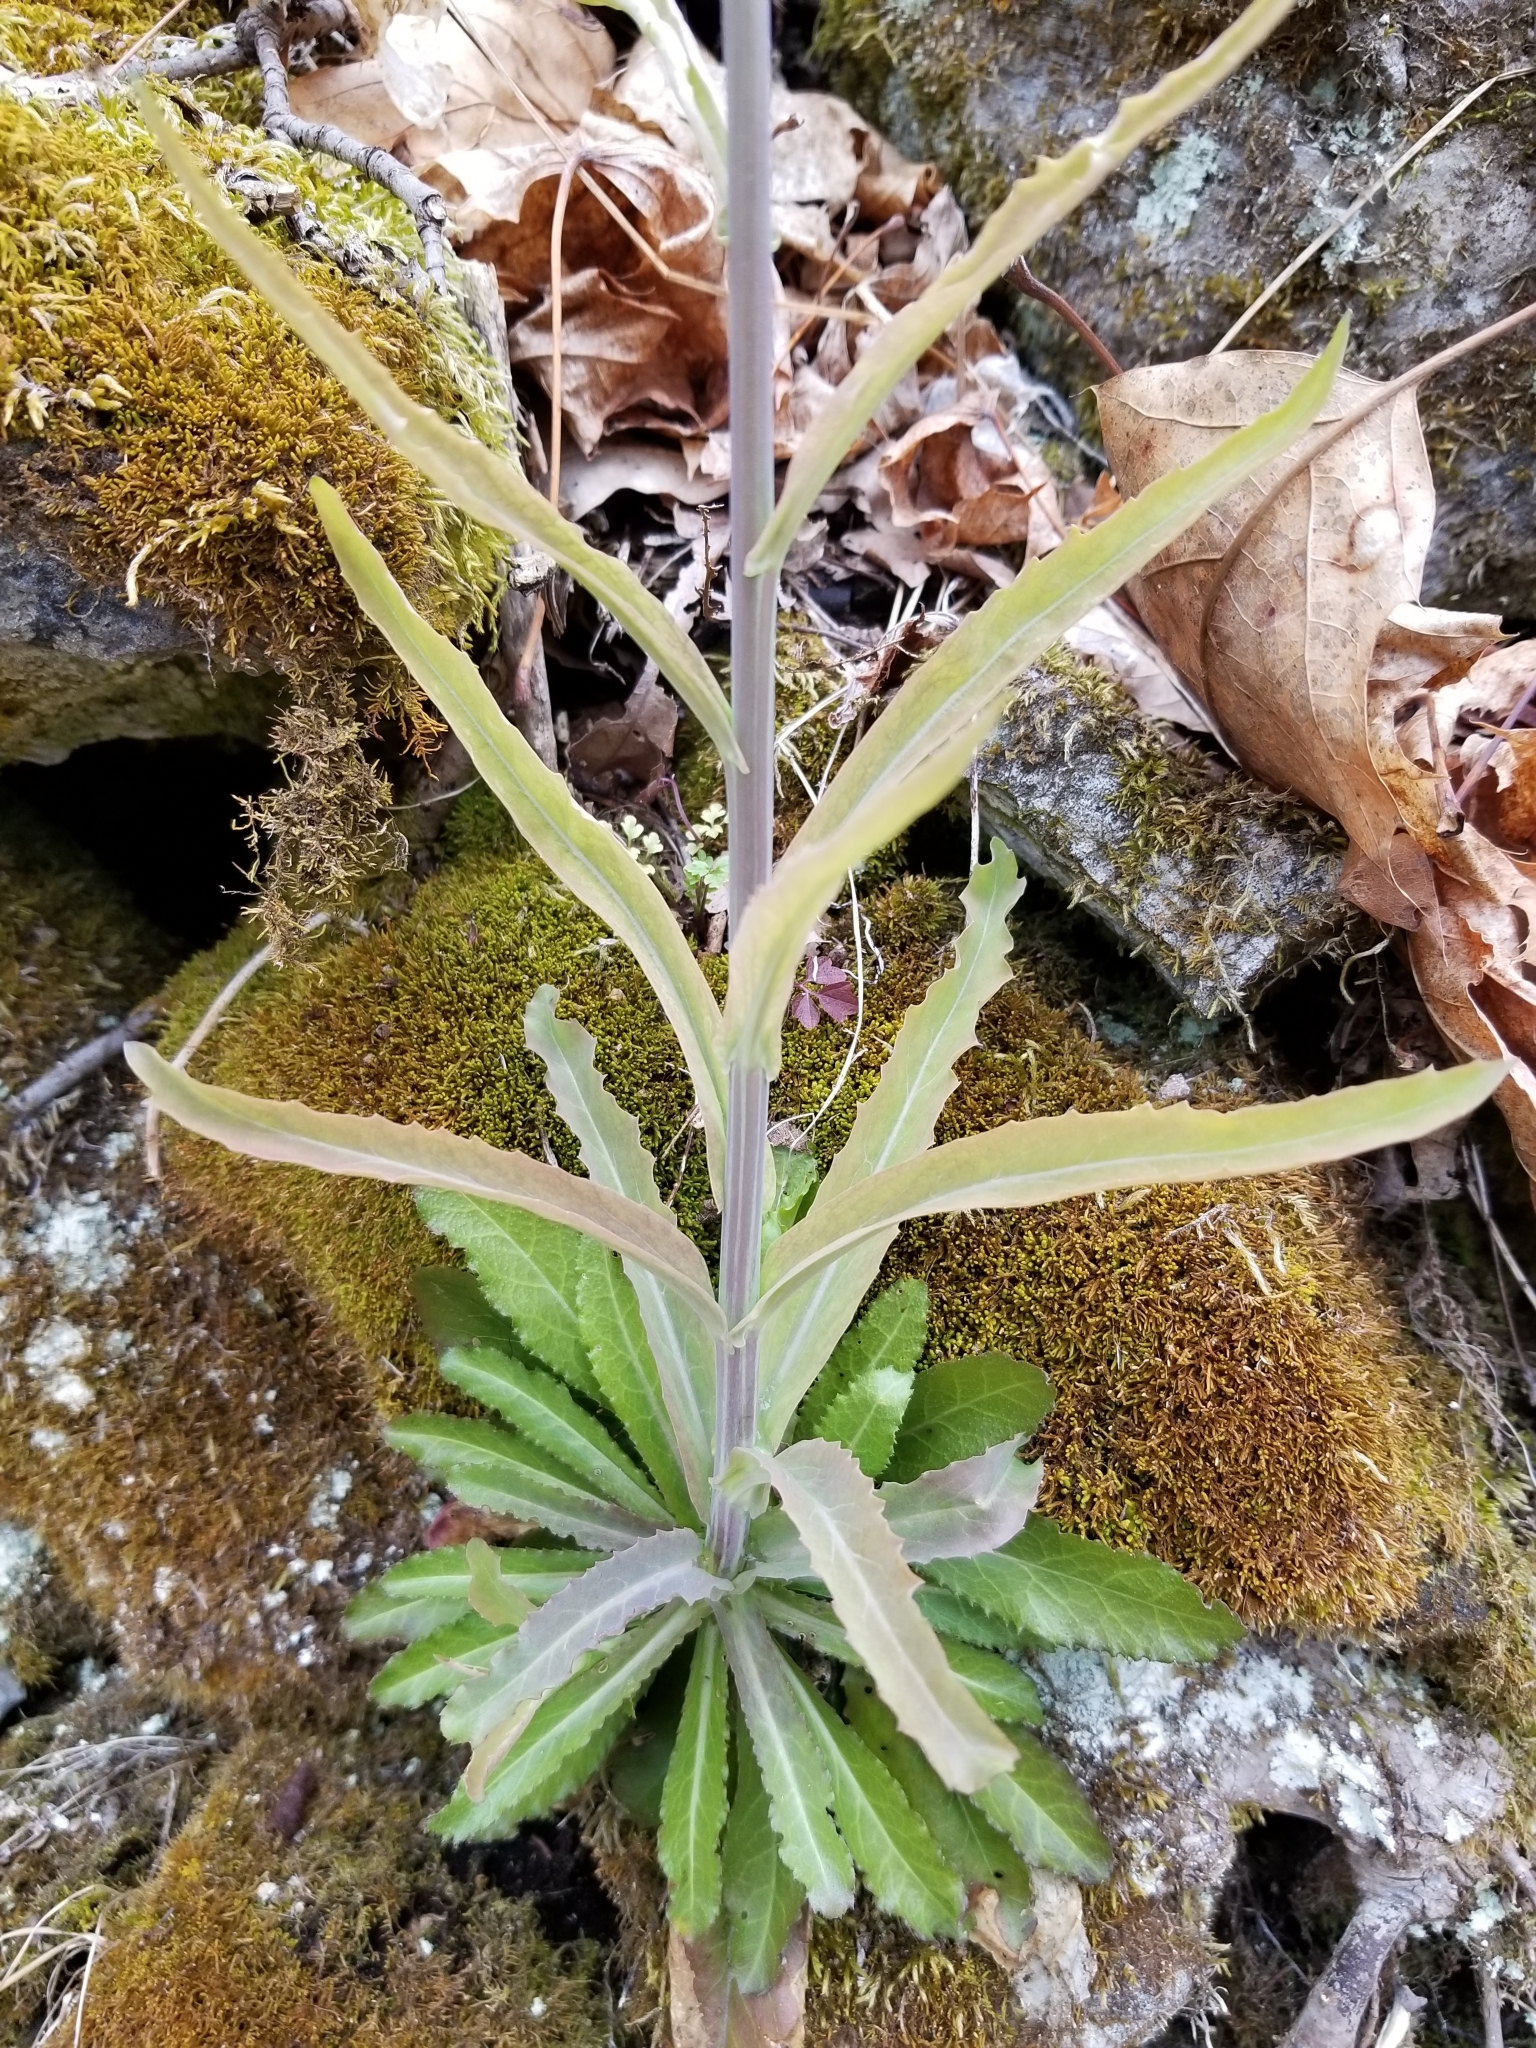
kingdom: Plantae
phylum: Tracheophyta
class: Magnoliopsida
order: Brassicales
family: Brassicaceae
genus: Borodinia
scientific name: Borodinia laevigata
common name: Smooth rockcress
